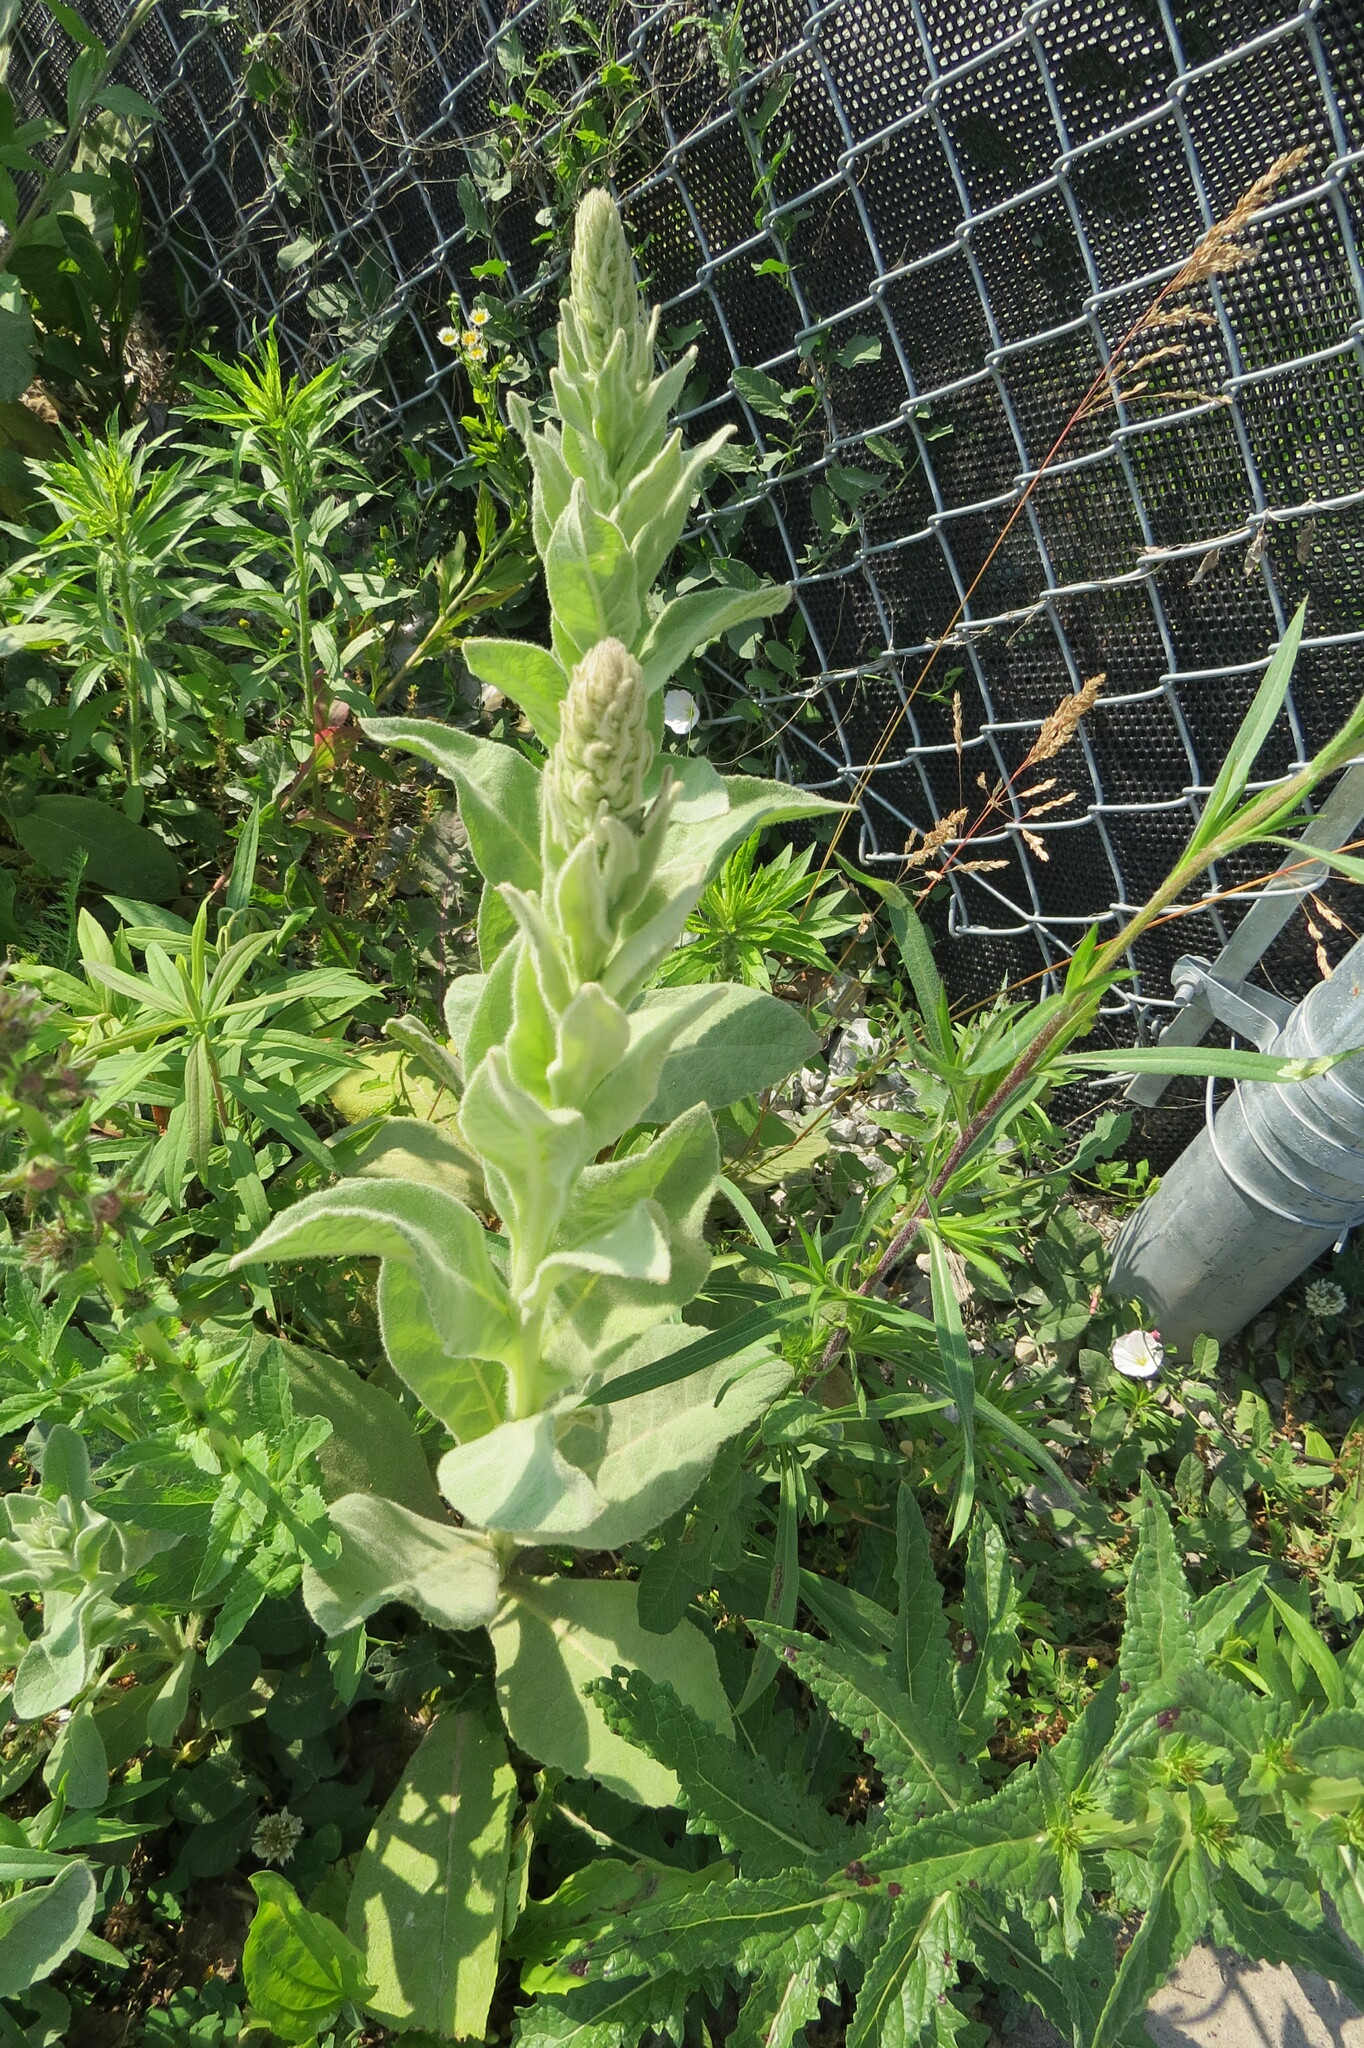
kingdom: Plantae
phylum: Tracheophyta
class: Magnoliopsida
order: Lamiales
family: Scrophulariaceae
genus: Verbascum
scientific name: Verbascum thapsus
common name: Common mullein
